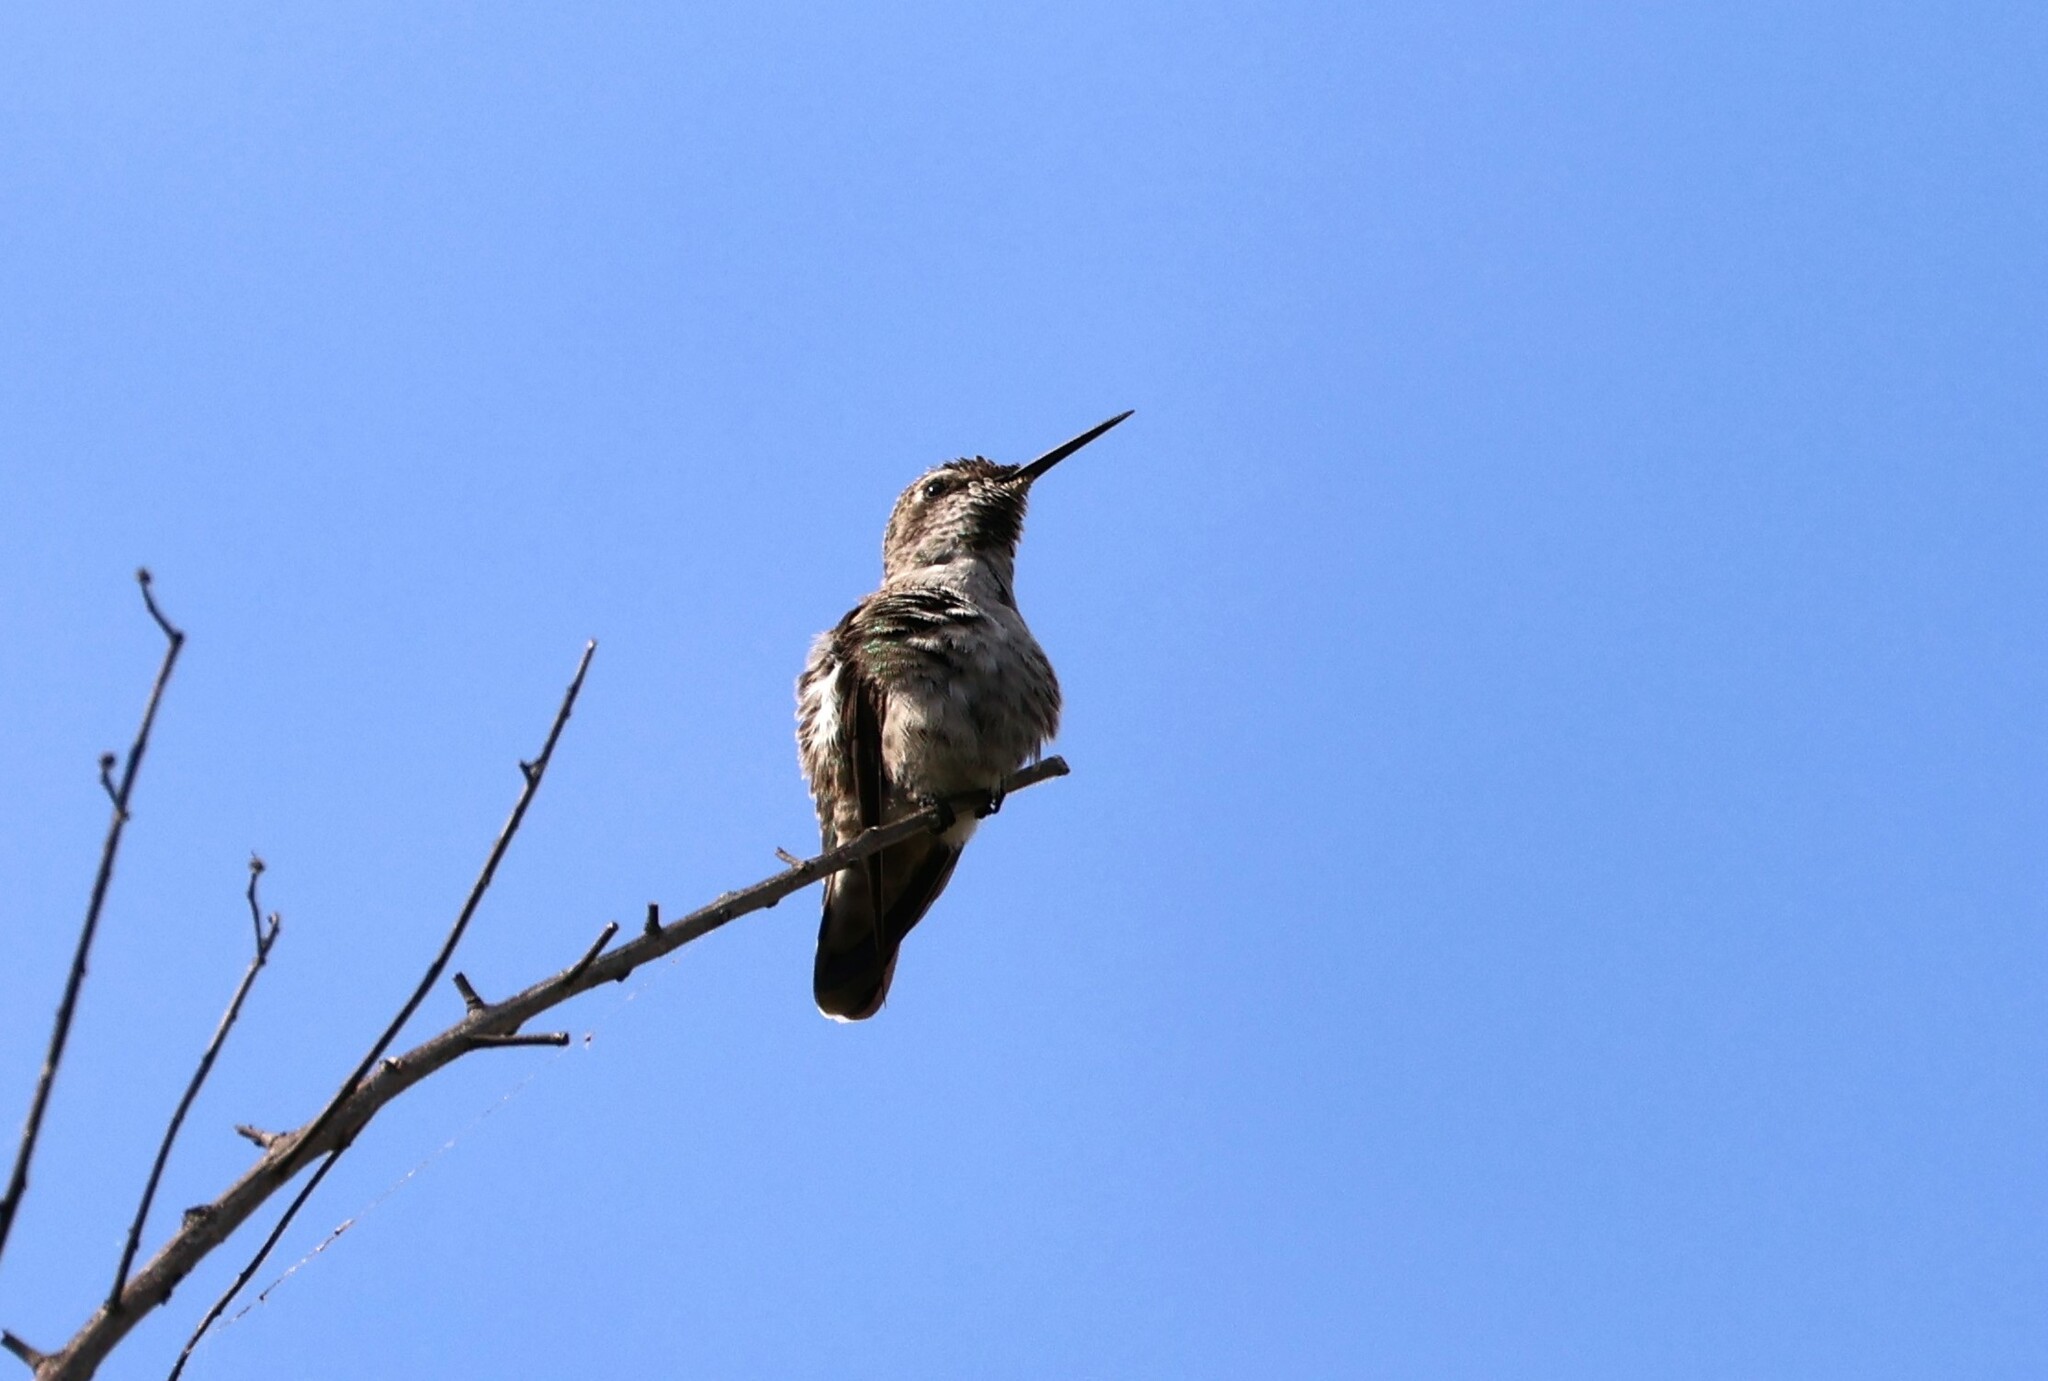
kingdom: Animalia
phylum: Chordata
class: Aves
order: Apodiformes
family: Trochilidae
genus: Calypte
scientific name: Calypte anna
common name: Anna's hummingbird
